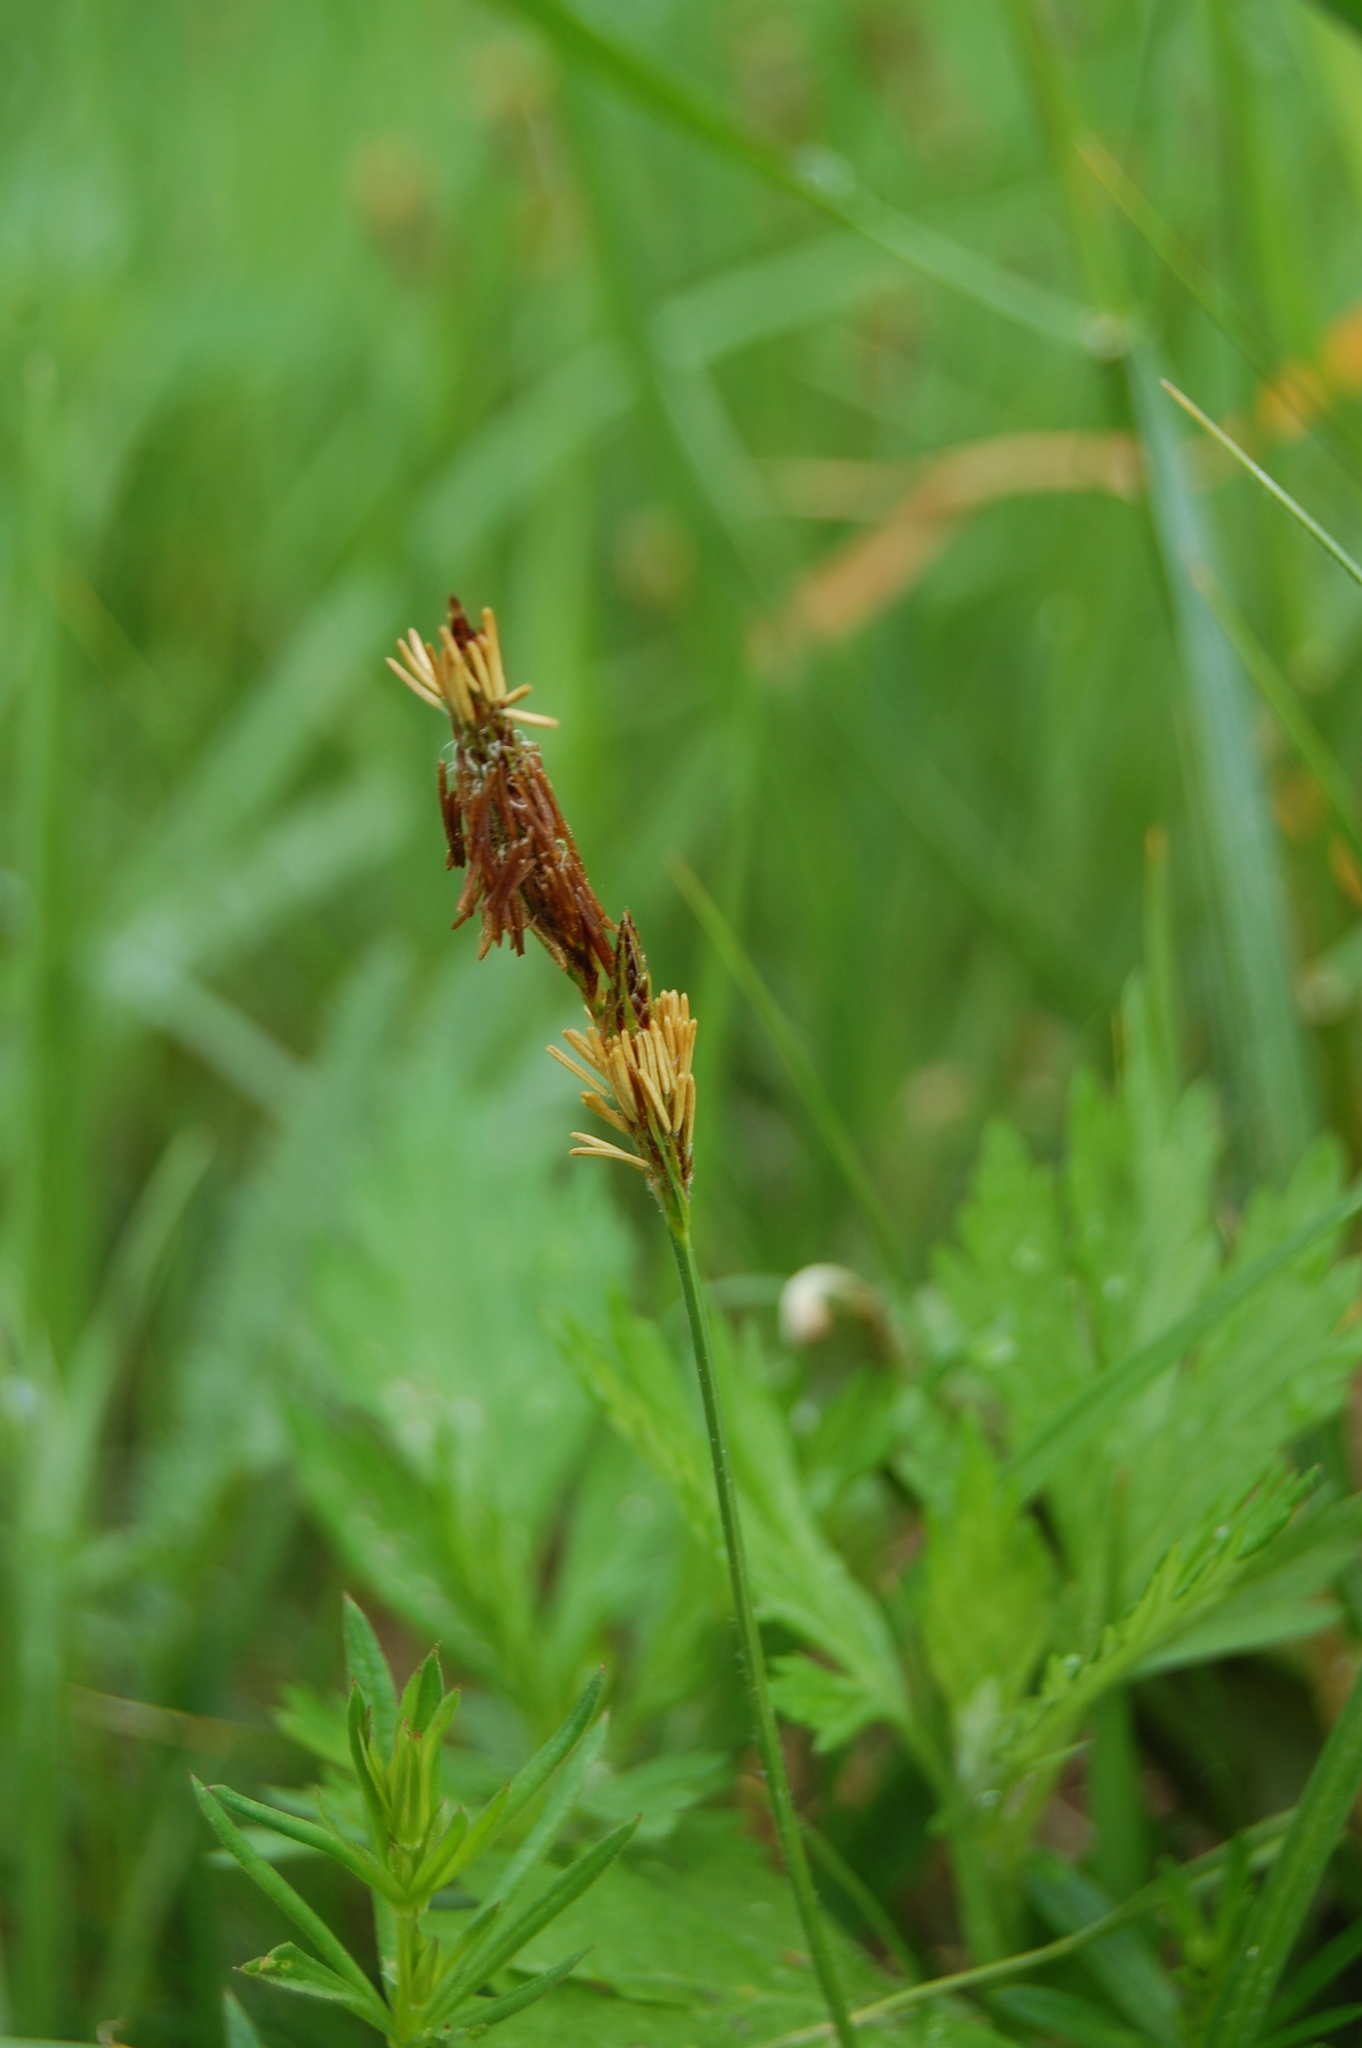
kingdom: Plantae
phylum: Tracheophyta
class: Liliopsida
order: Poales
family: Cyperaceae
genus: Carex
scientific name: Carex hirta
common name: Hairy sedge
